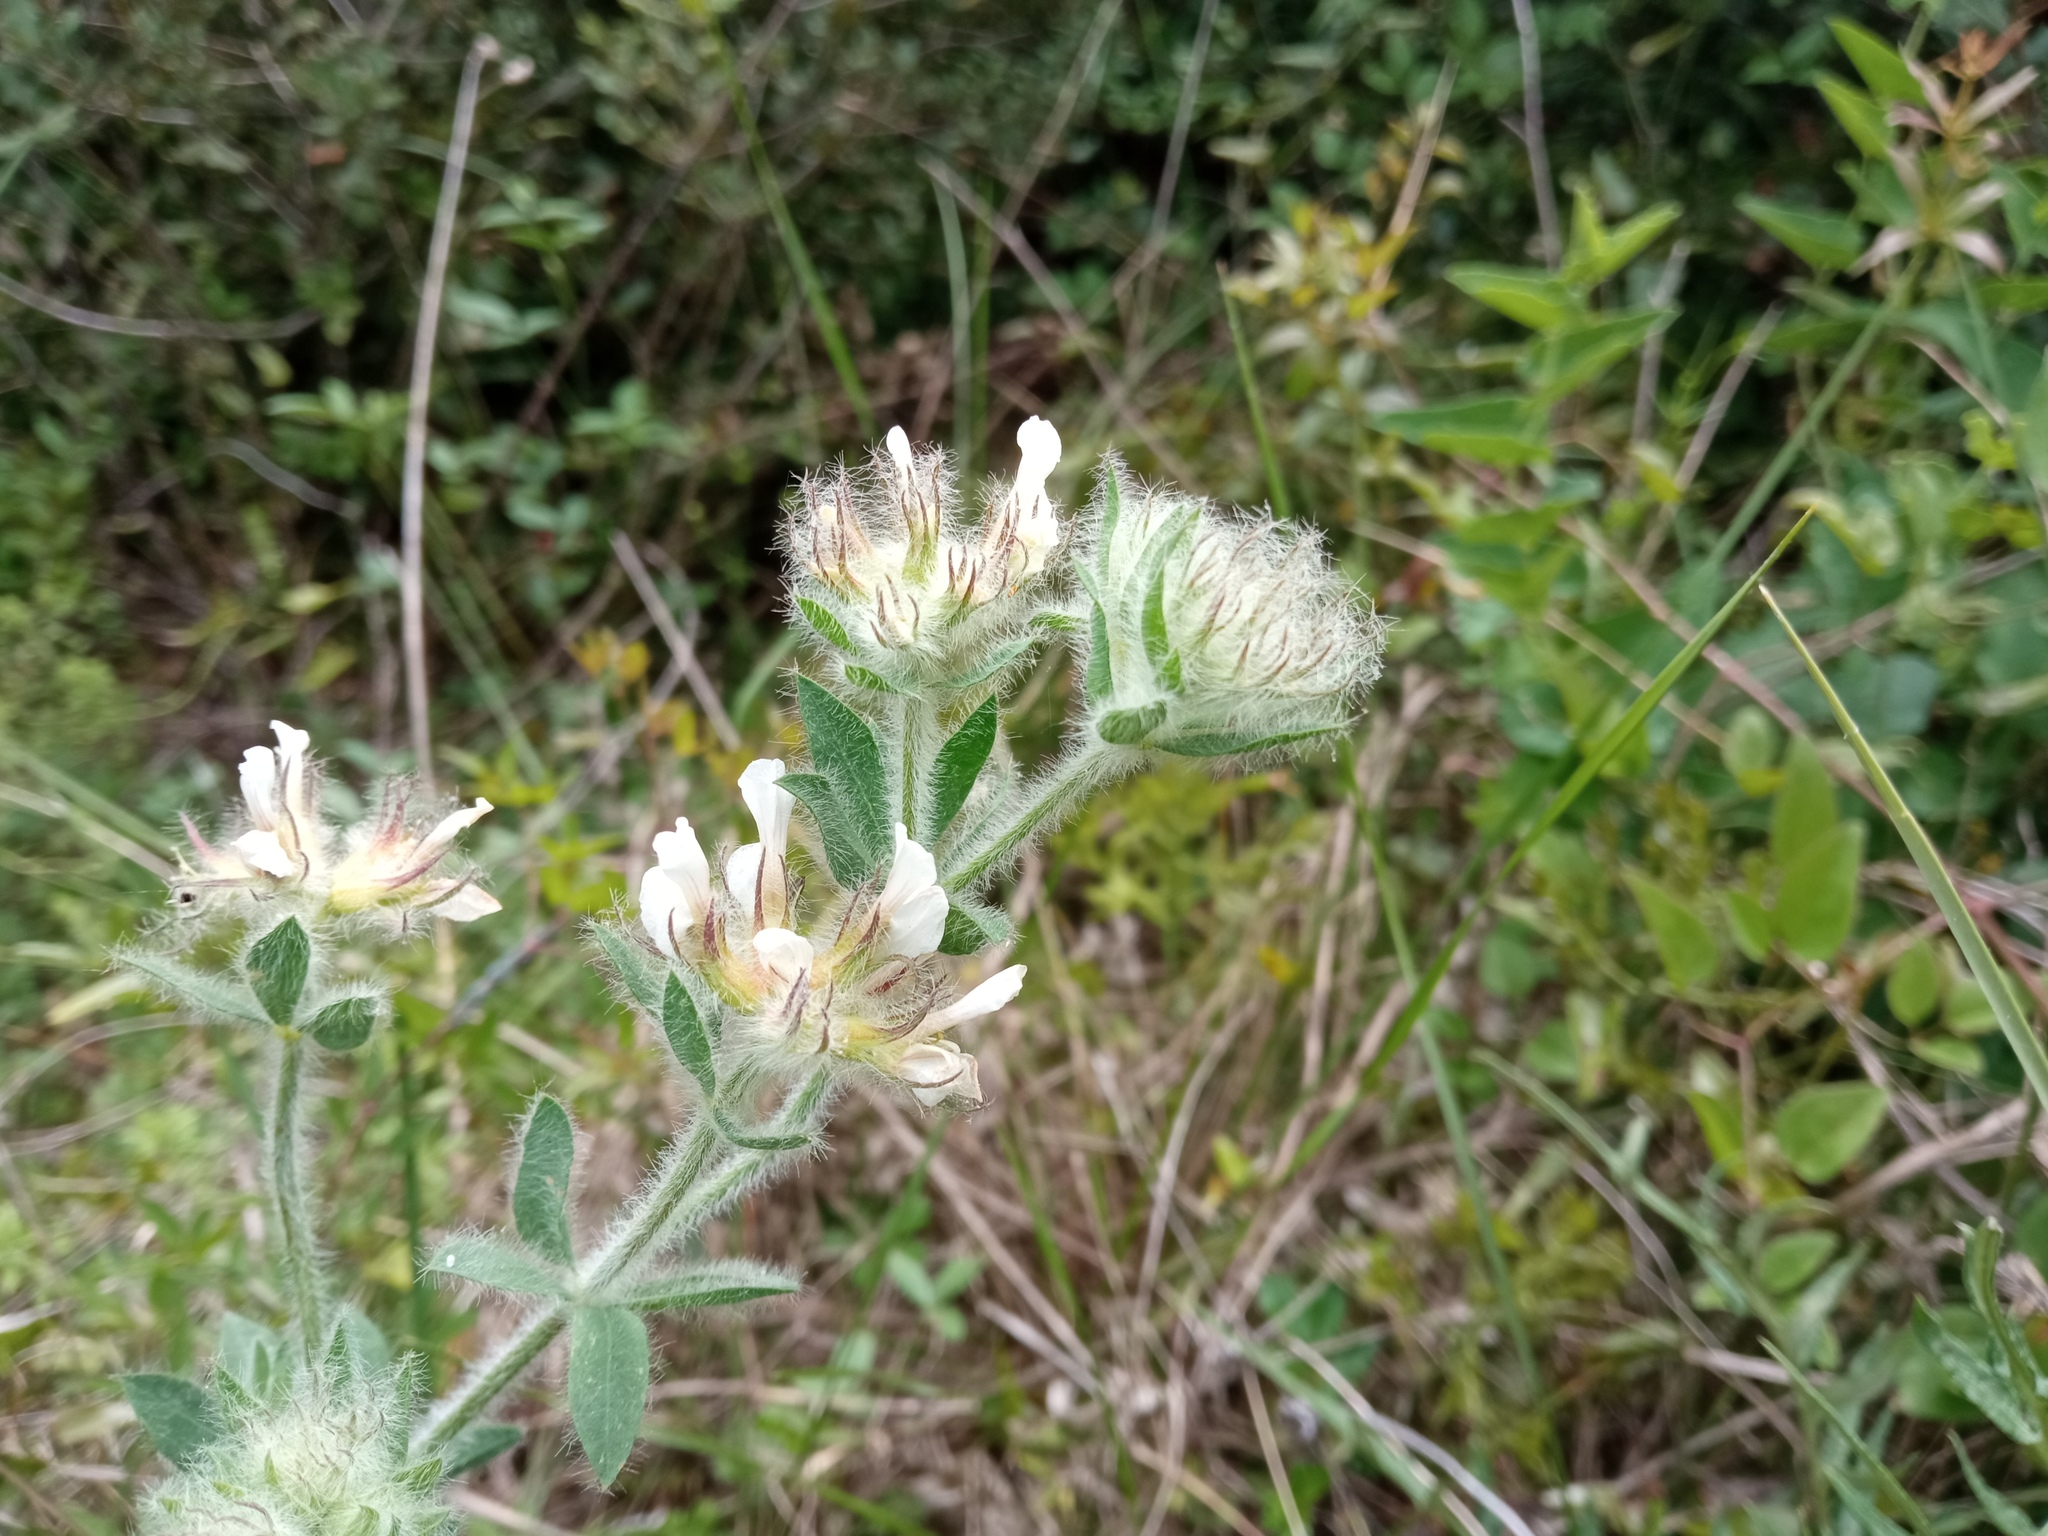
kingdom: Plantae
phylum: Tracheophyta
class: Magnoliopsida
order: Fabales
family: Fabaceae
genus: Lotus
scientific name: Lotus hirsutus
